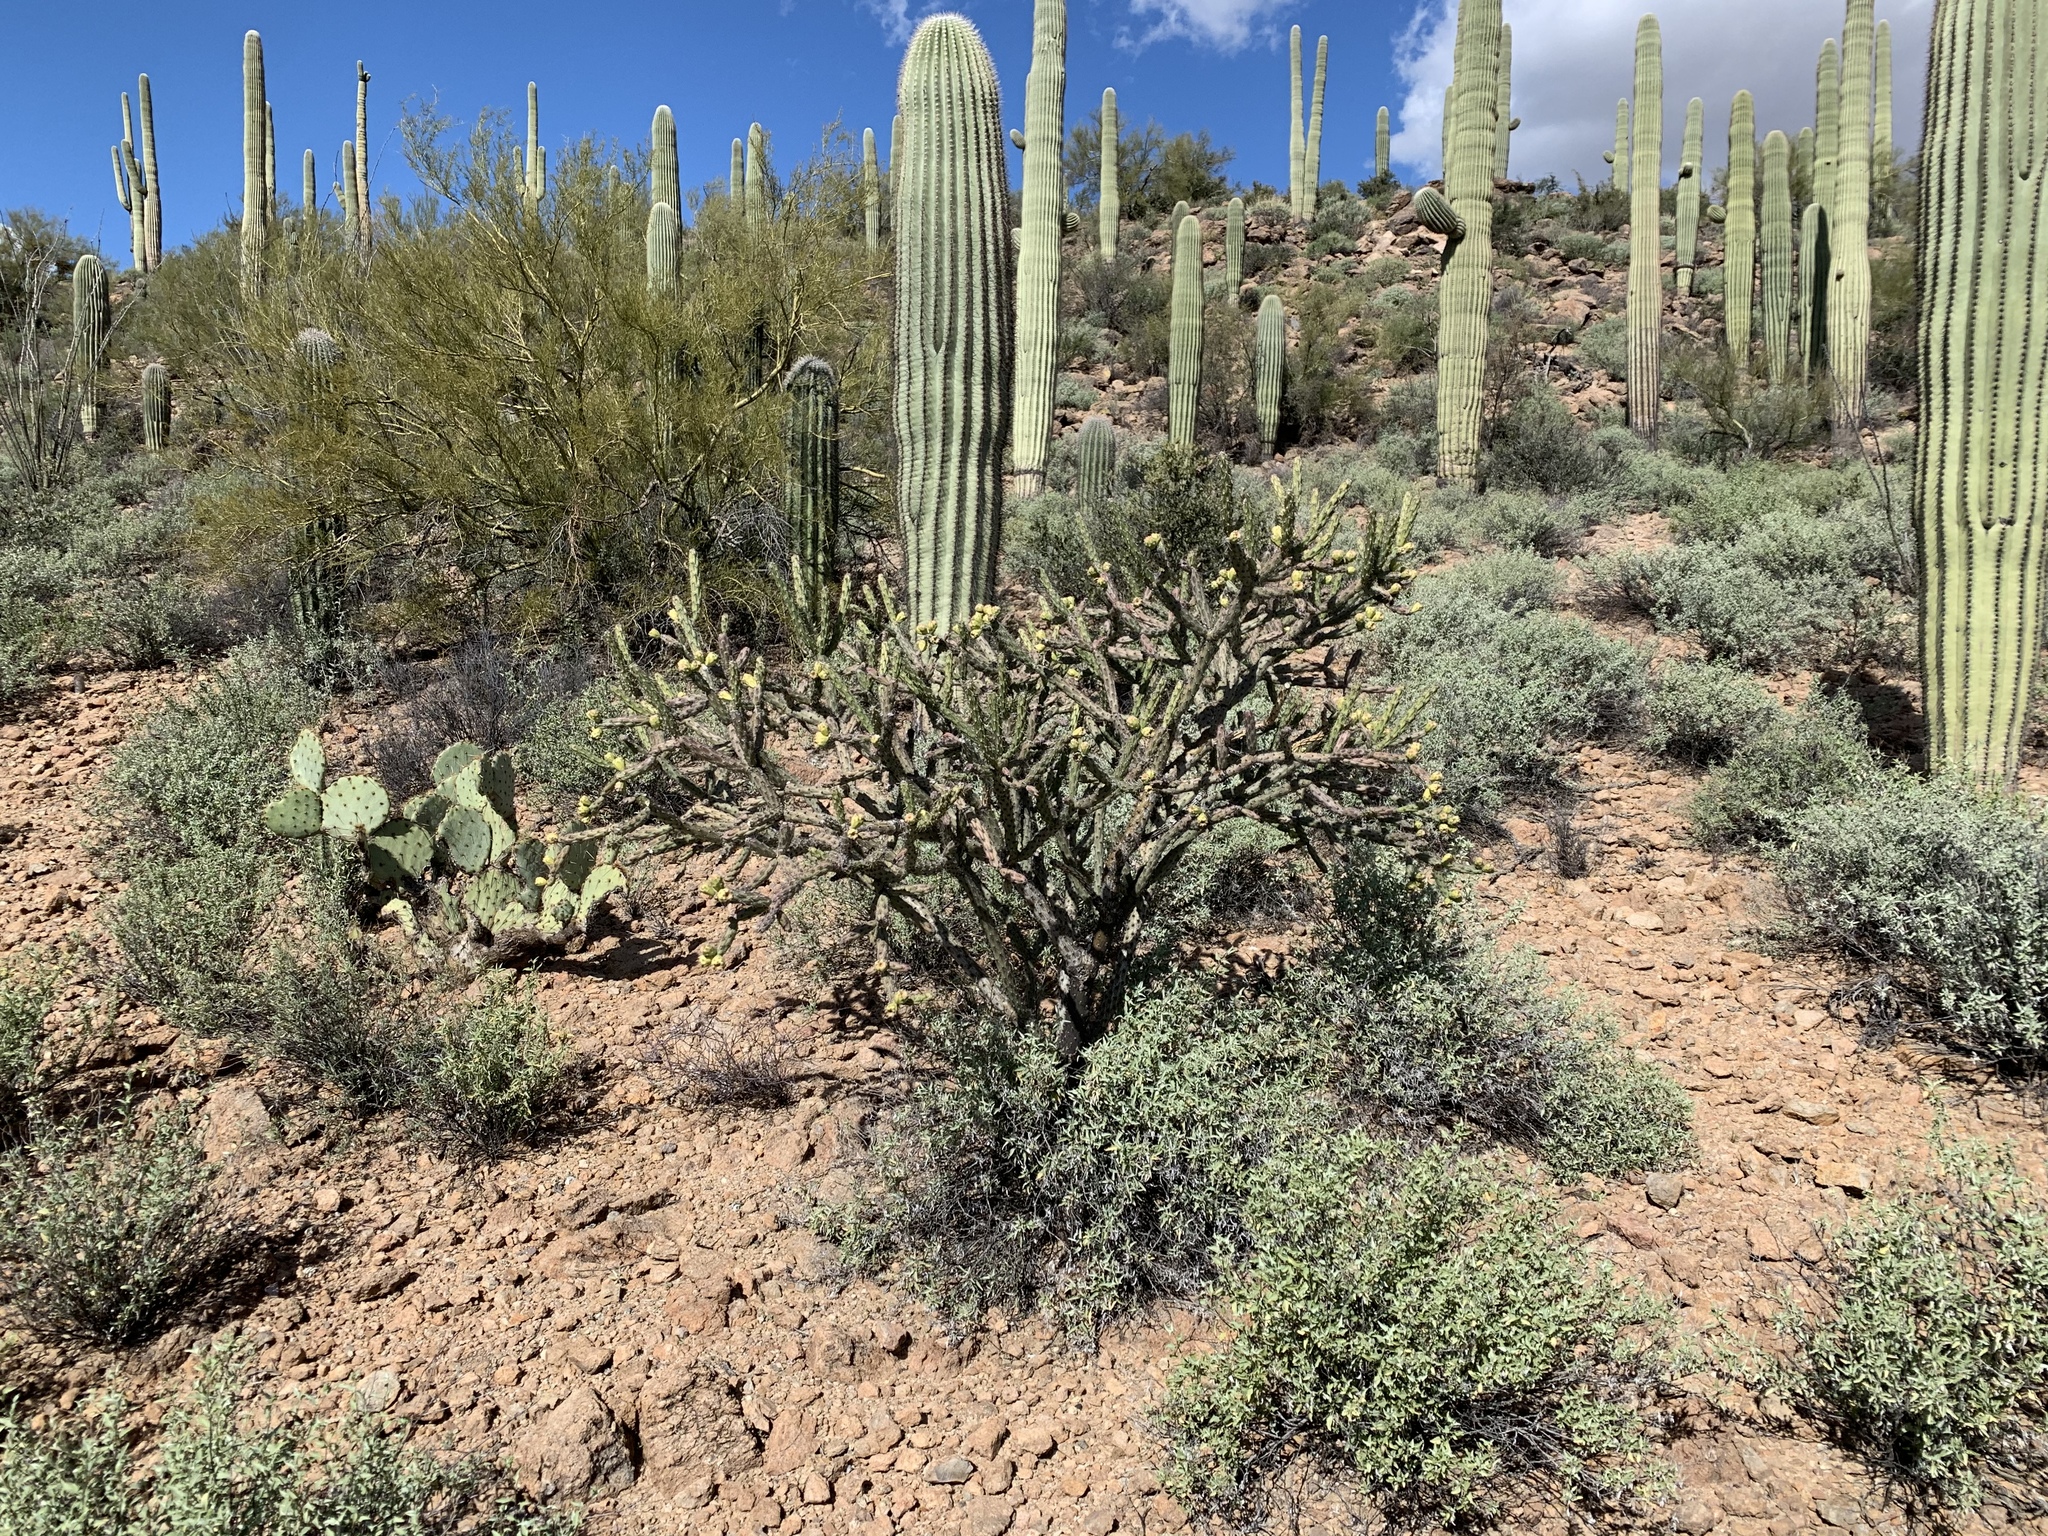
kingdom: Plantae
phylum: Tracheophyta
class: Magnoliopsida
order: Caryophyllales
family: Cactaceae
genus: Cylindropuntia
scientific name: Cylindropuntia thurberi
